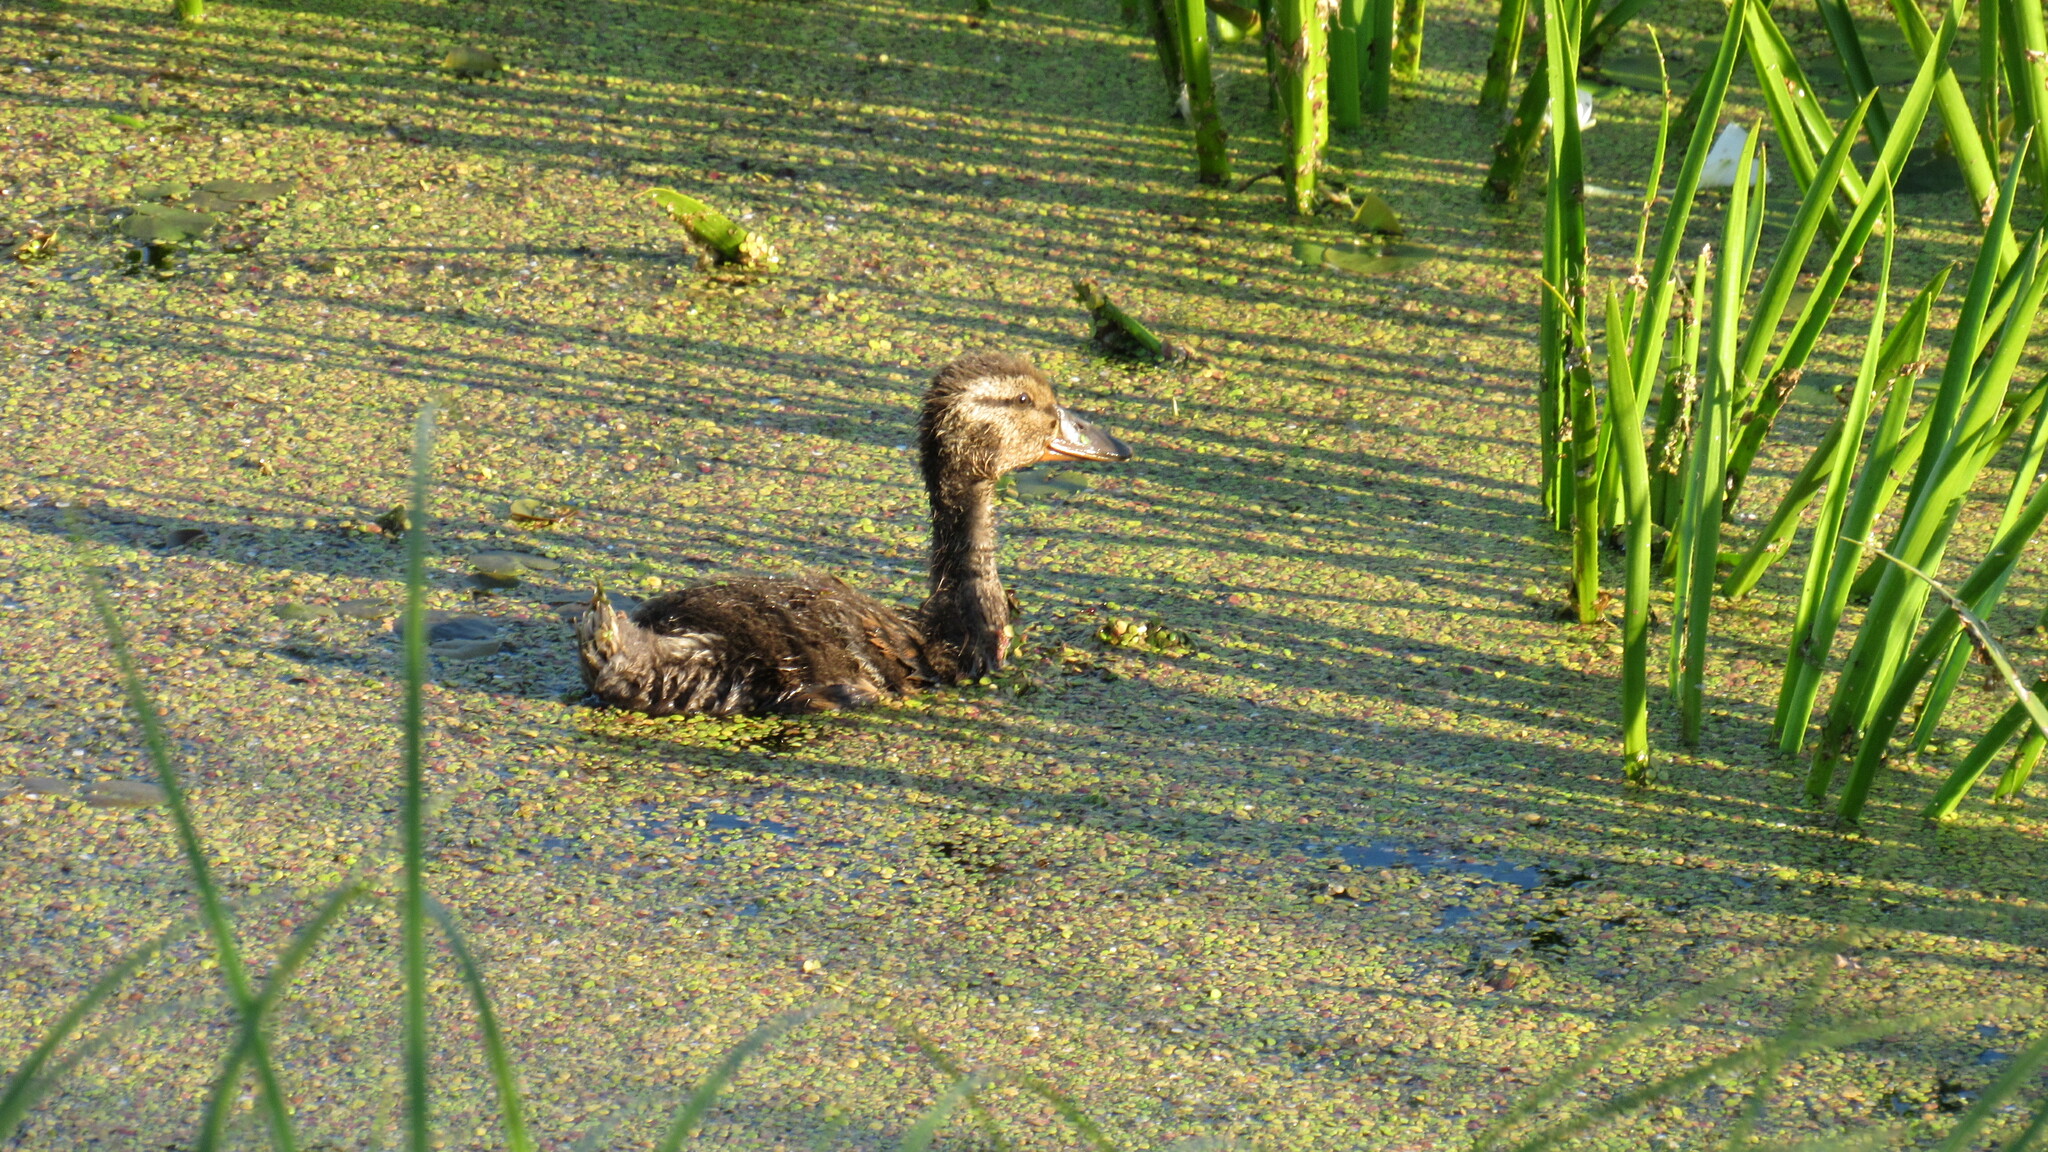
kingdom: Animalia
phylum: Chordata
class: Aves
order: Anseriformes
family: Anatidae
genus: Anas
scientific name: Anas platyrhynchos
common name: Mallard
